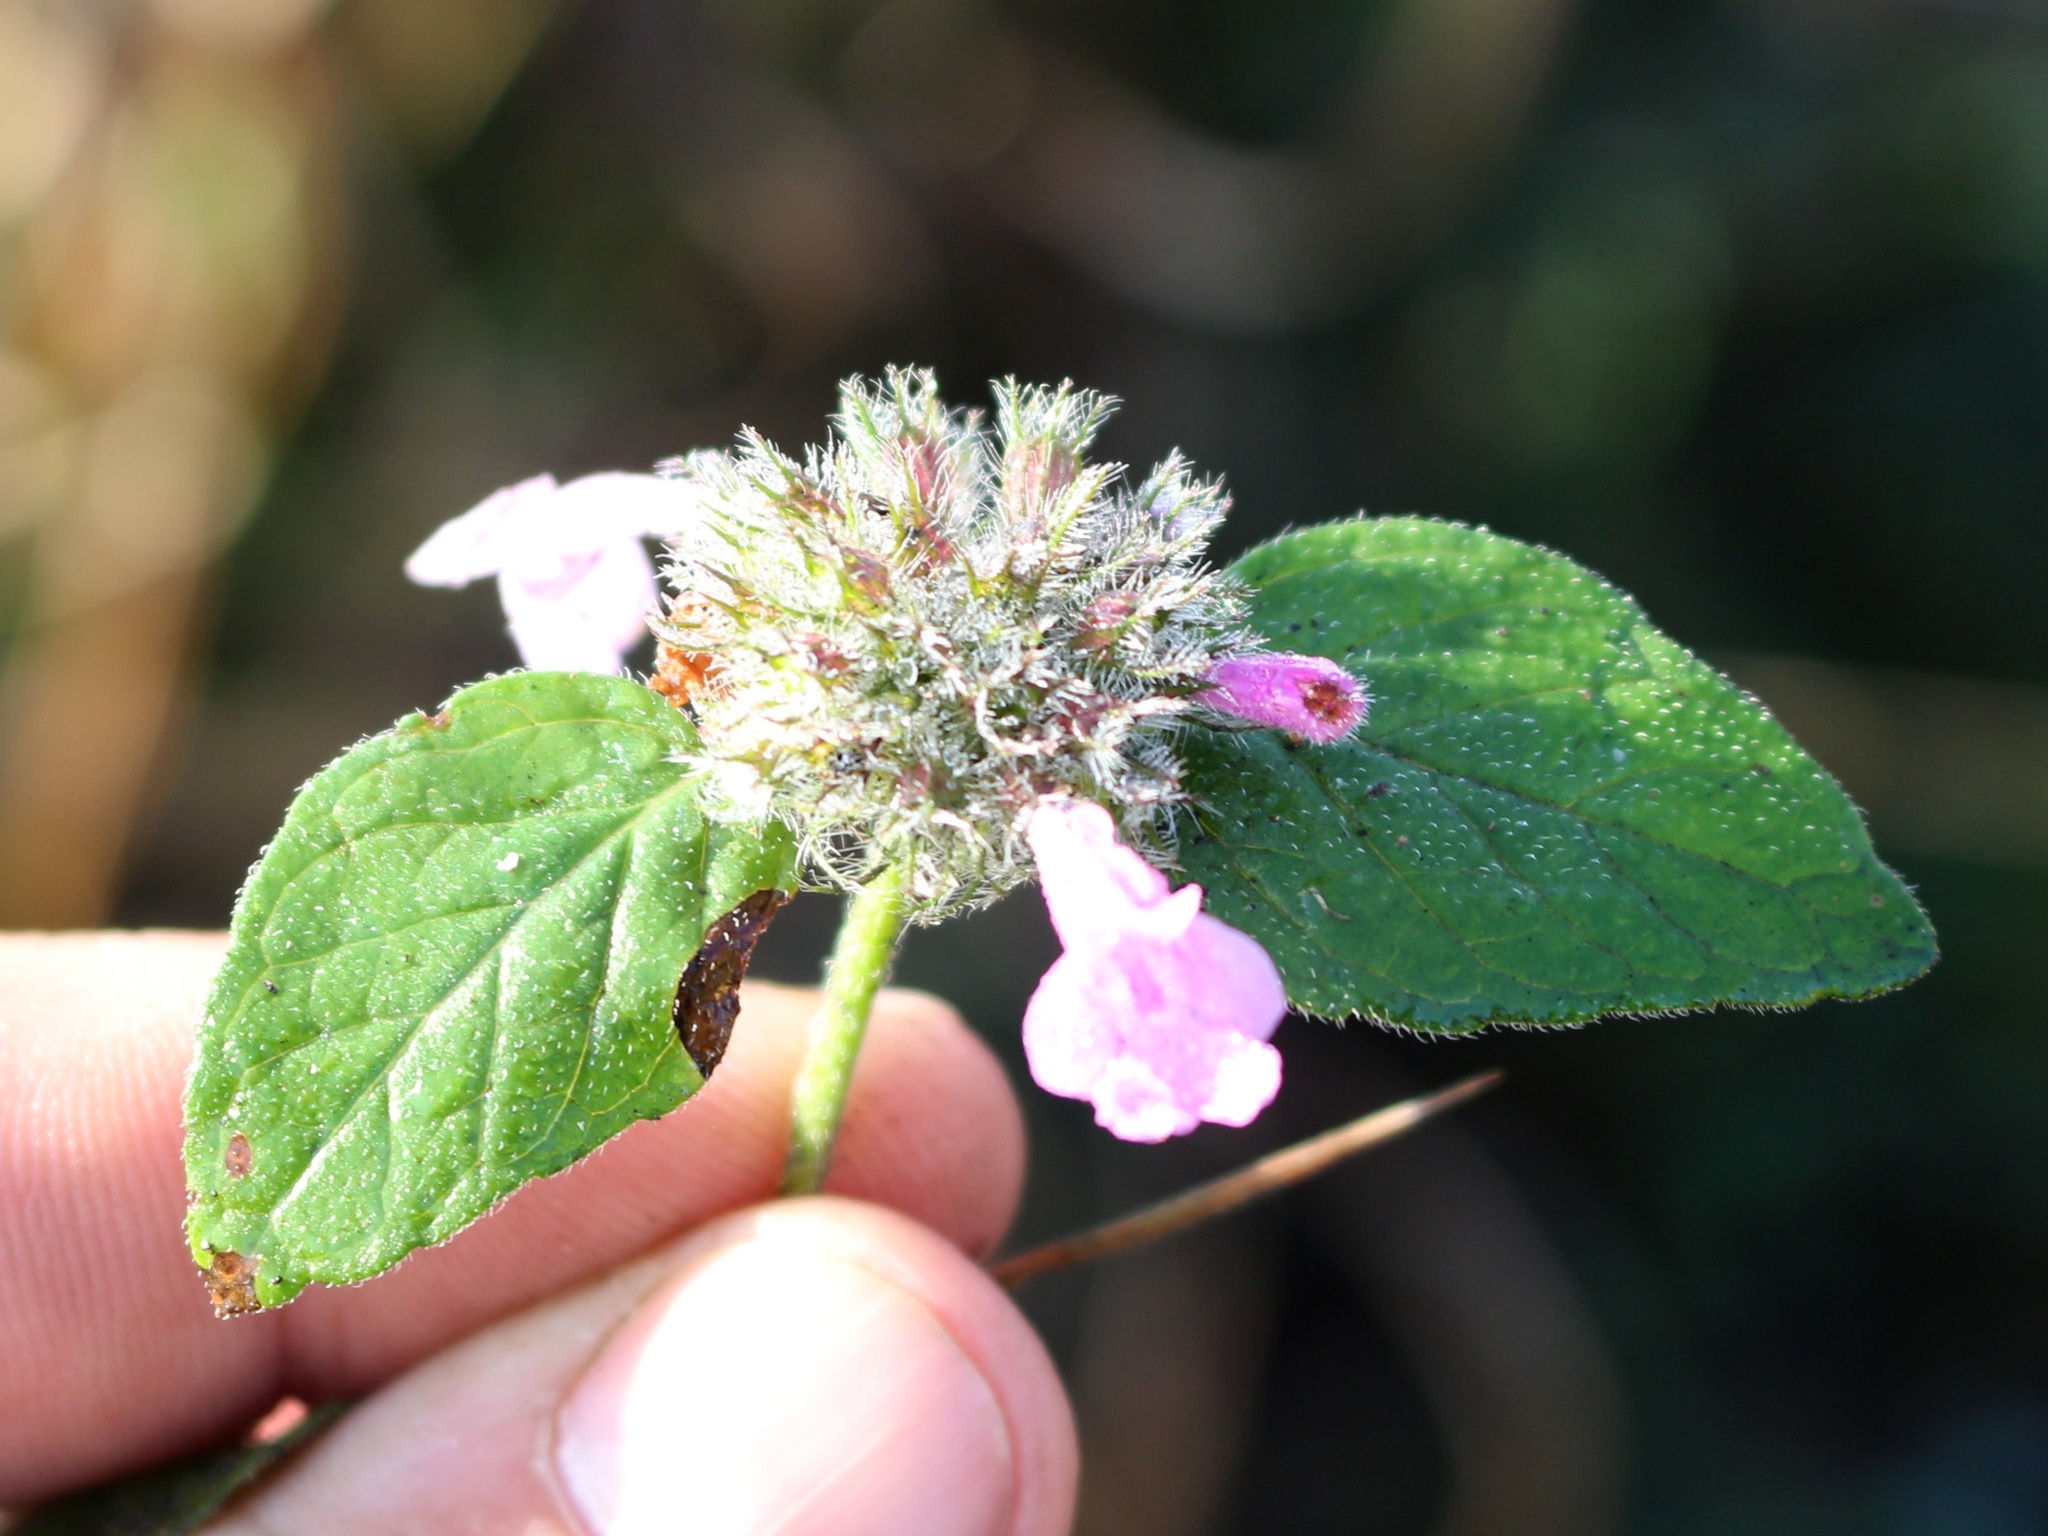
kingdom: Plantae
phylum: Tracheophyta
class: Magnoliopsida
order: Lamiales
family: Lamiaceae
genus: Clinopodium
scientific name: Clinopodium caucasicum
